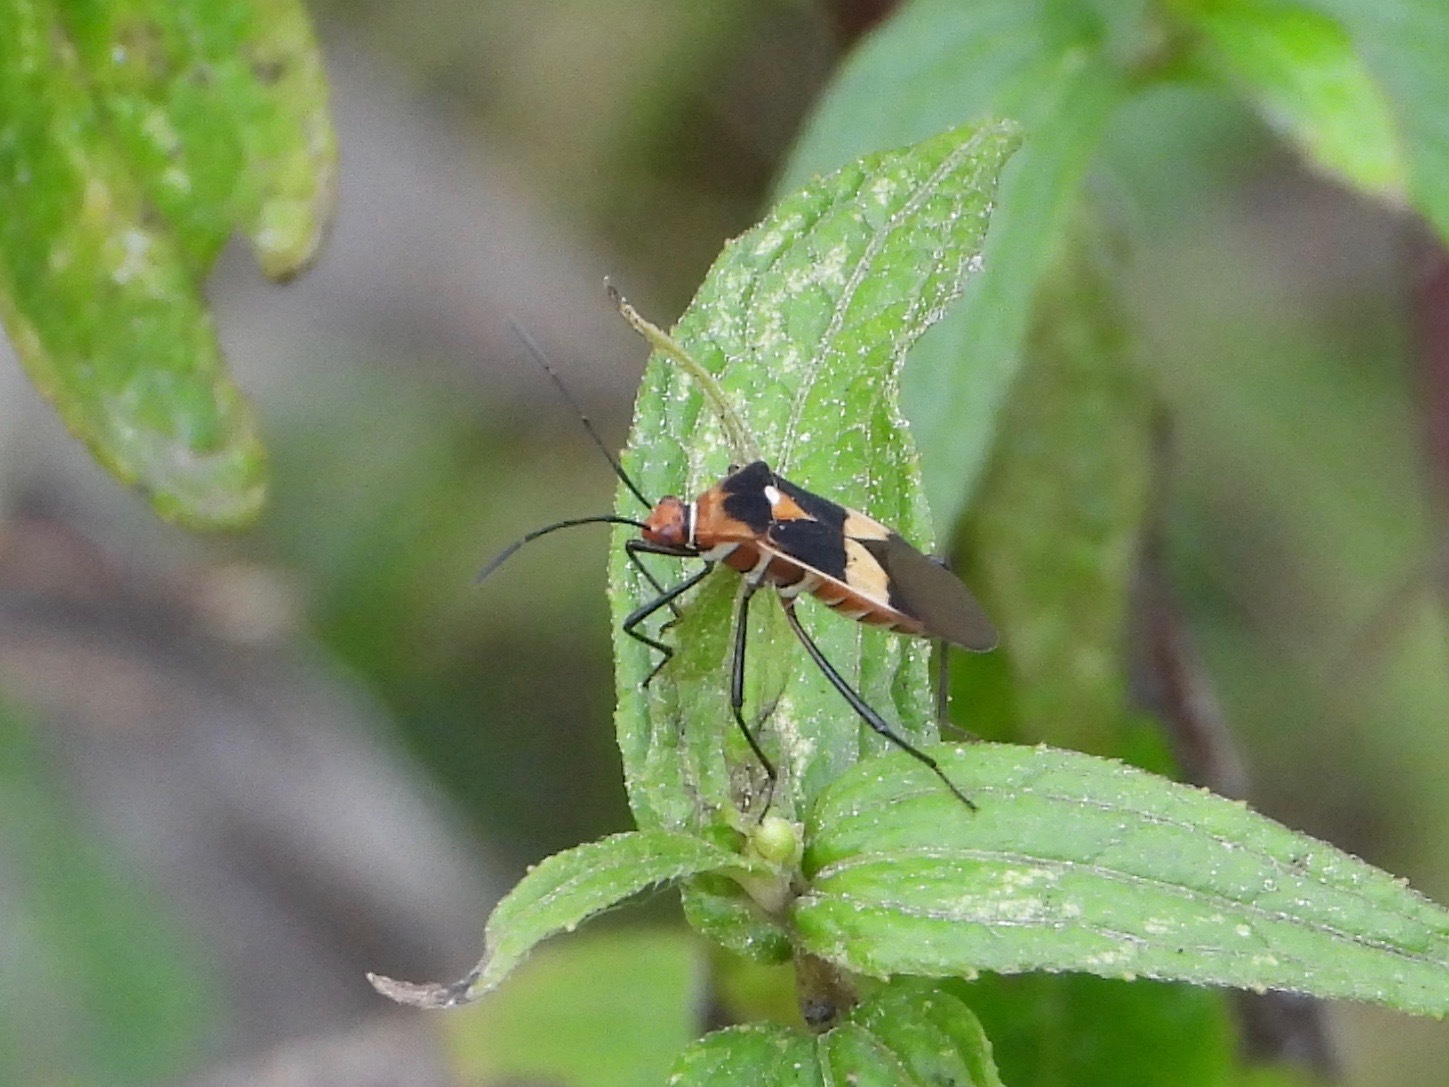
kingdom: Animalia
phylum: Arthropoda
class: Insecta
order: Hemiptera
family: Coreidae
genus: Hypselonotus
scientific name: Hypselonotus interruptus
